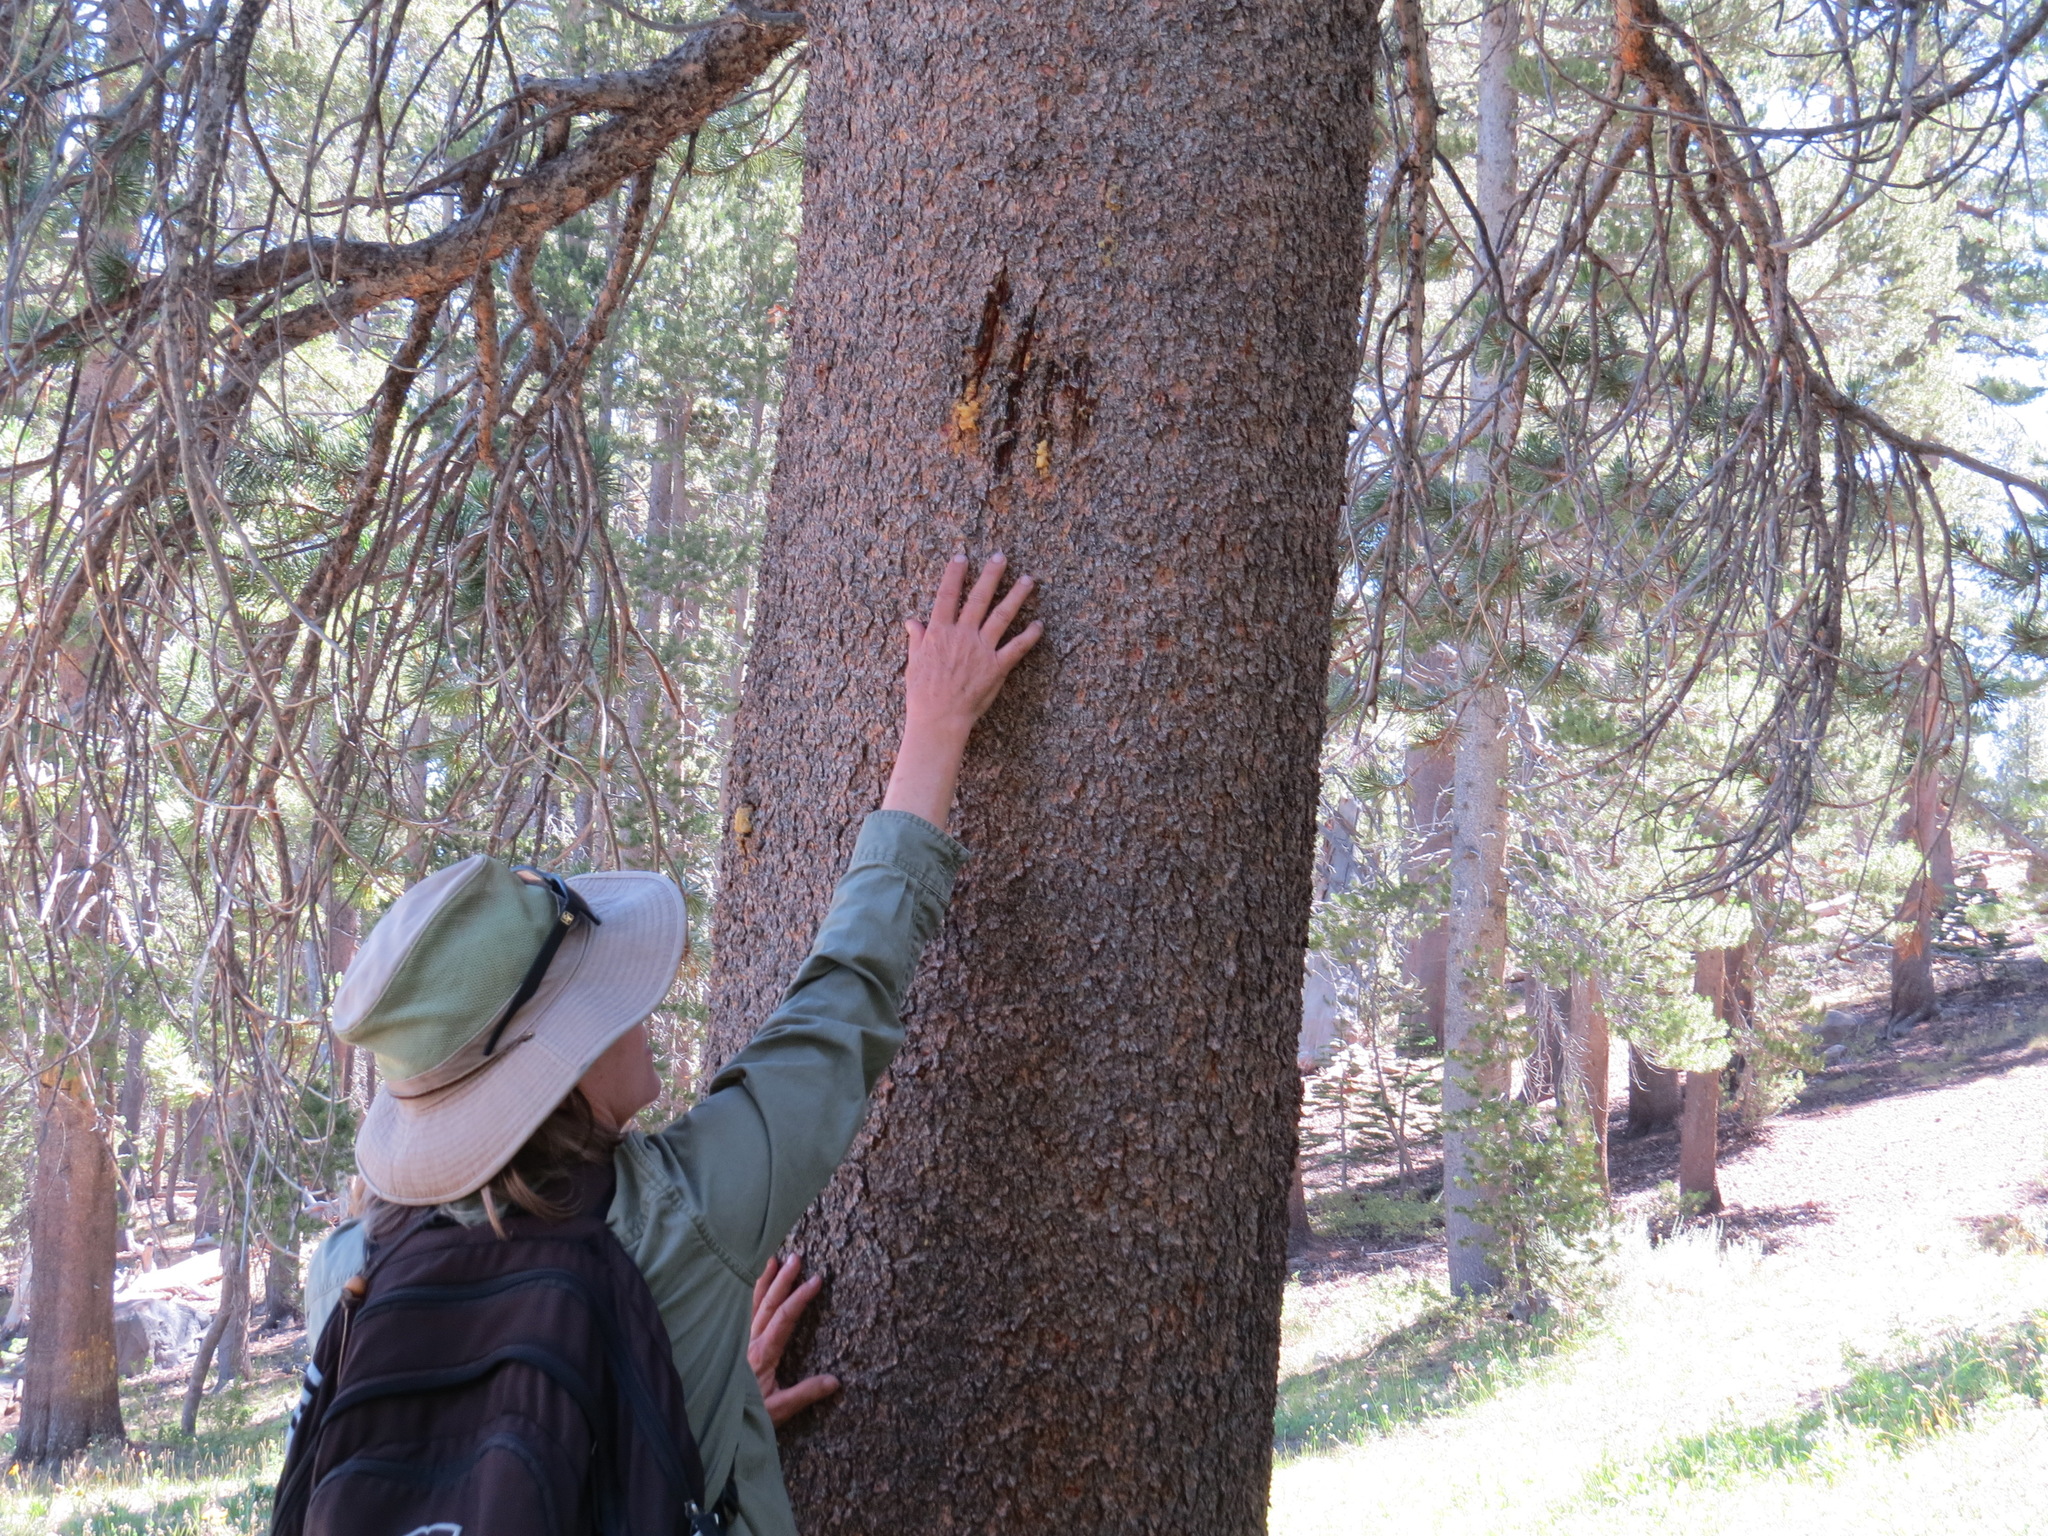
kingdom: Animalia
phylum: Chordata
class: Mammalia
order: Carnivora
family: Ursidae
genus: Ursus
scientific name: Ursus americanus
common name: American black bear
